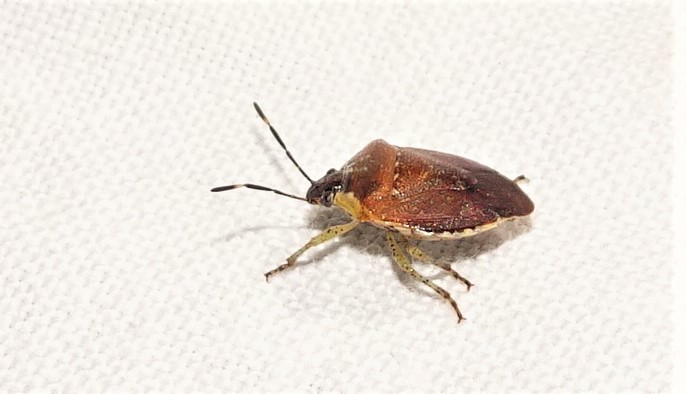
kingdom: Animalia
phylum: Arthropoda
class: Insecta
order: Hemiptera
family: Pentatomidae
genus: Monteithiella
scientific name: Monteithiella
